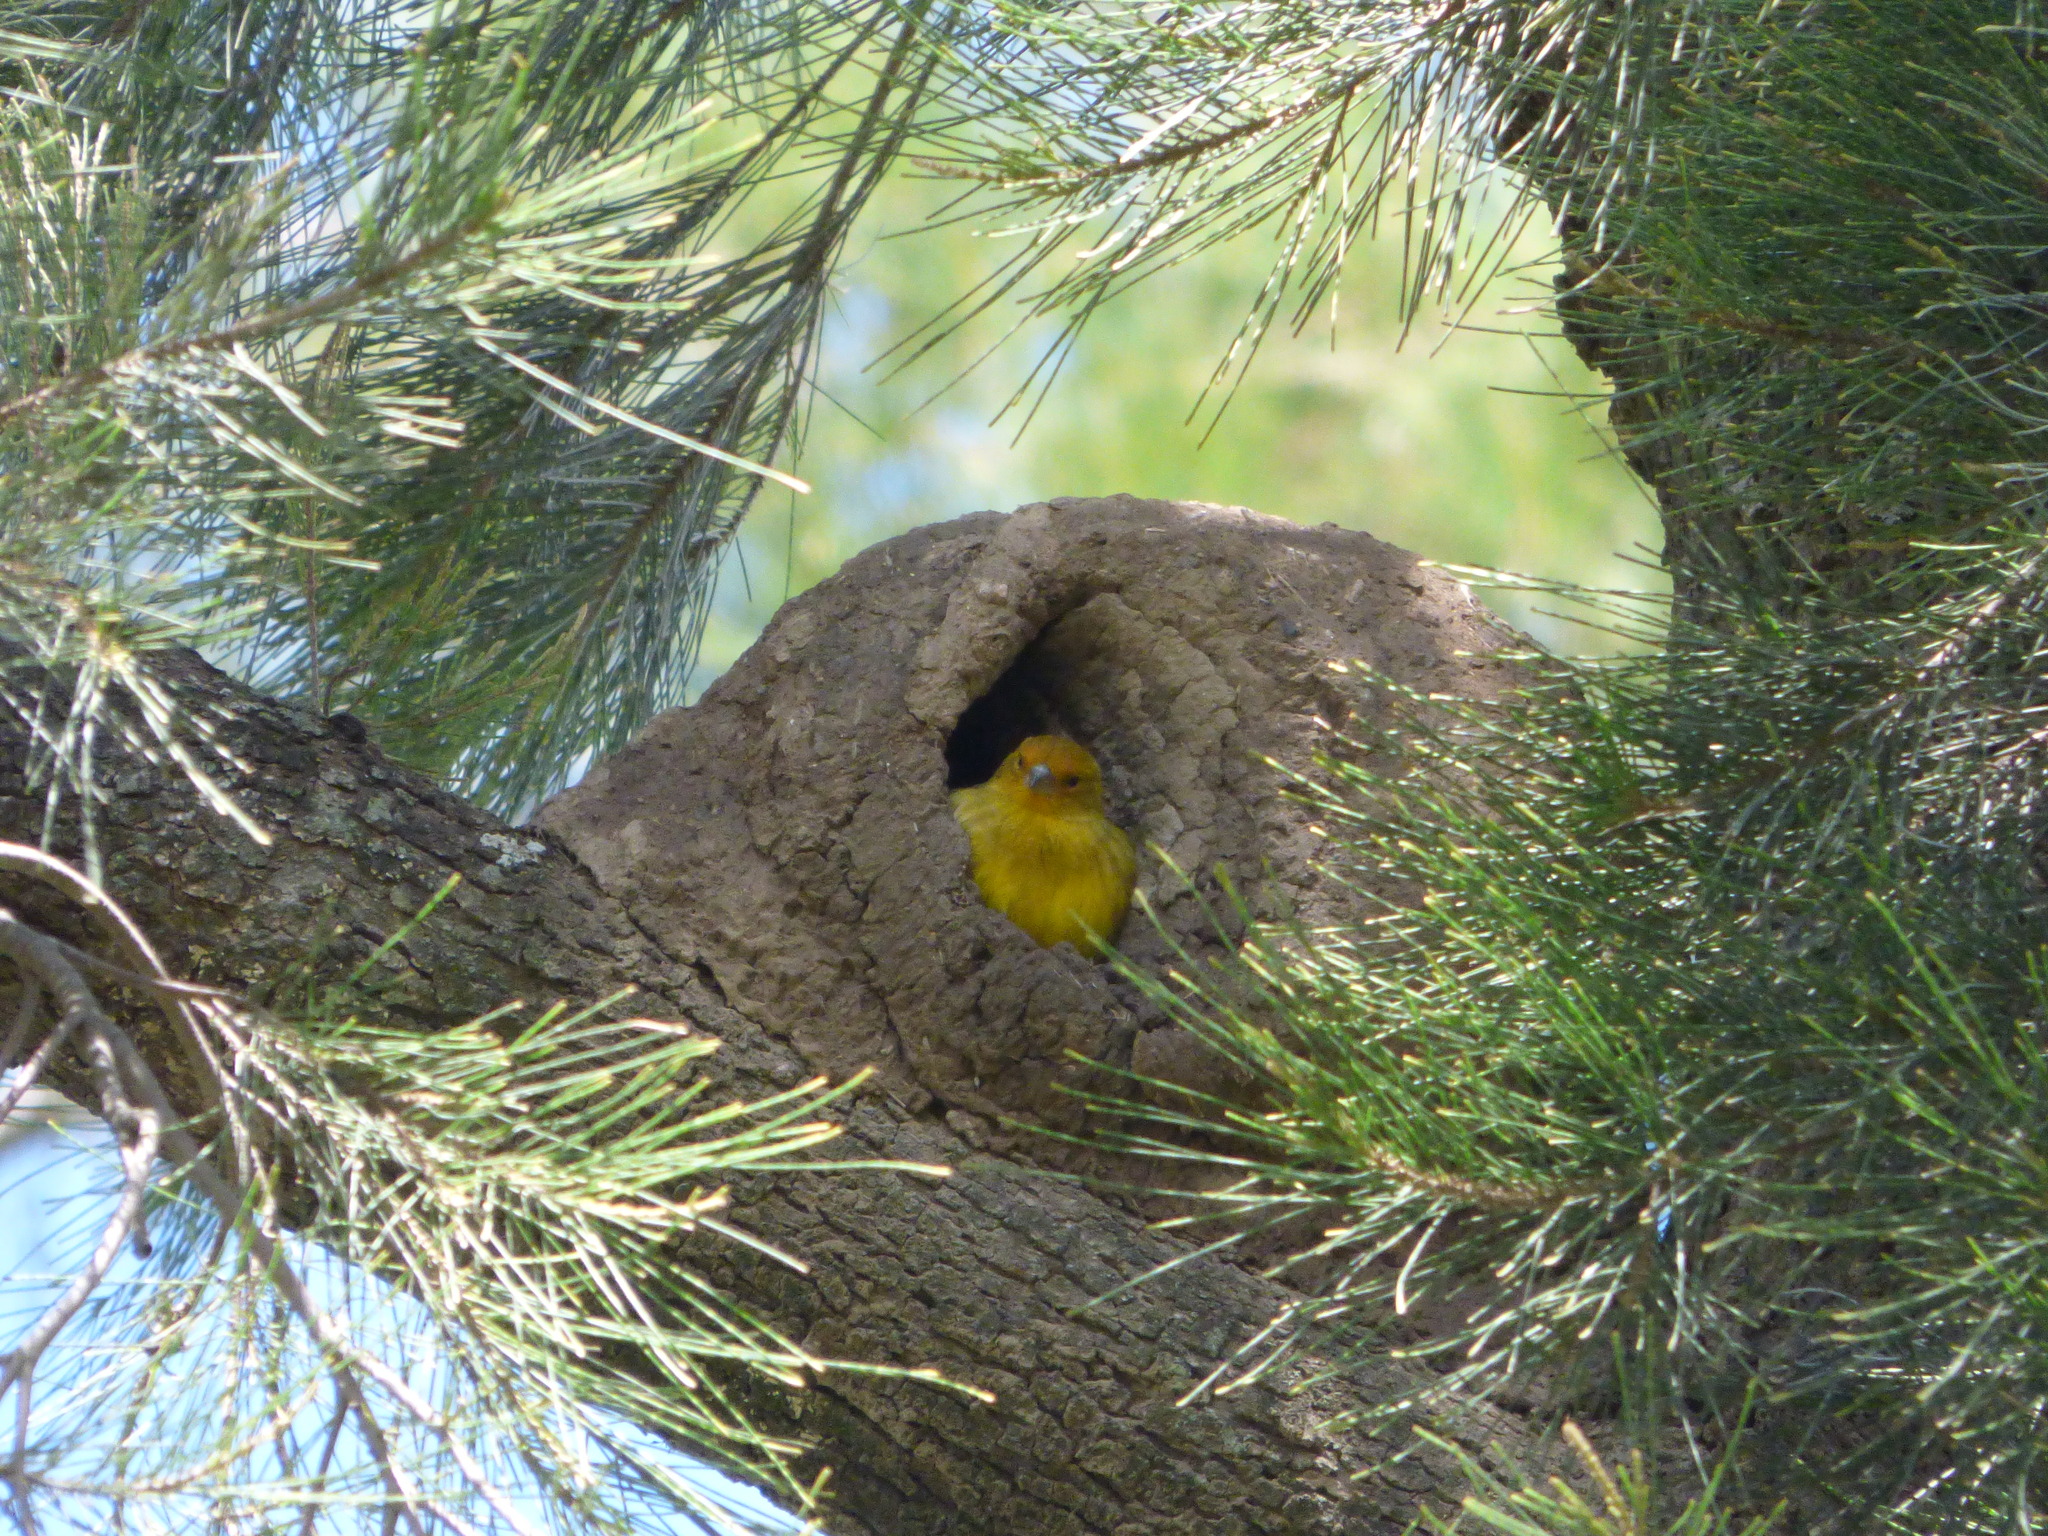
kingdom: Animalia
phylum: Chordata
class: Aves
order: Passeriformes
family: Thraupidae
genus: Sicalis
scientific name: Sicalis flaveola
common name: Saffron finch
